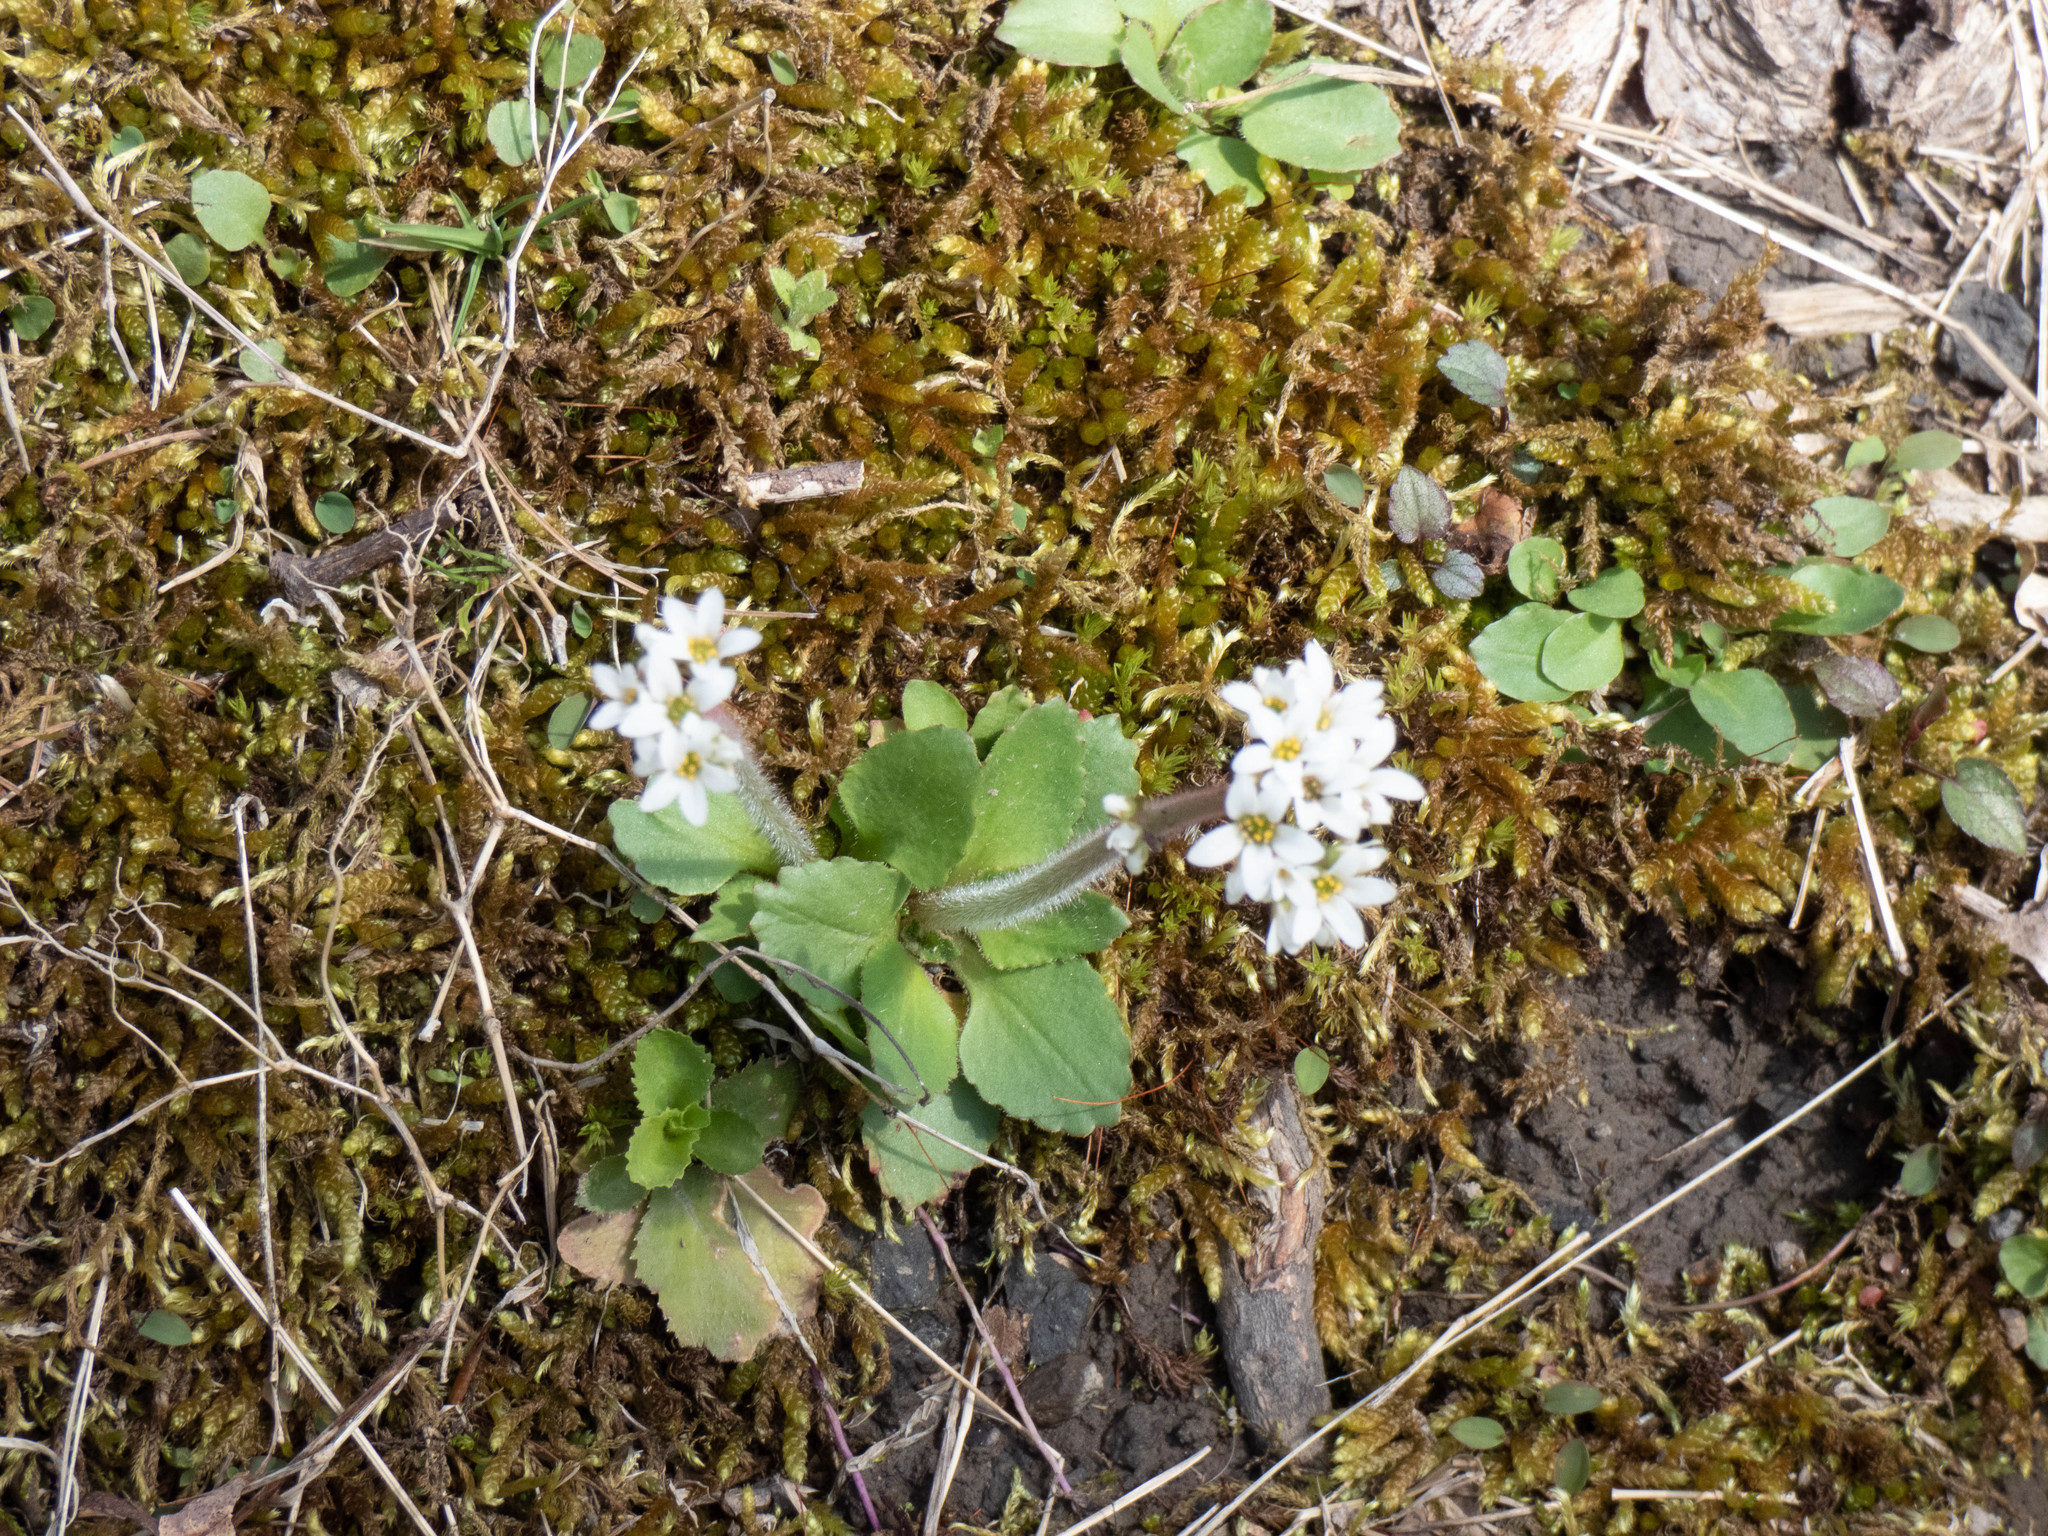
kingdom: Plantae
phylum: Tracheophyta
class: Magnoliopsida
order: Saxifragales
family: Saxifragaceae
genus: Micranthes
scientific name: Micranthes virginiensis
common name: Early saxifrage
